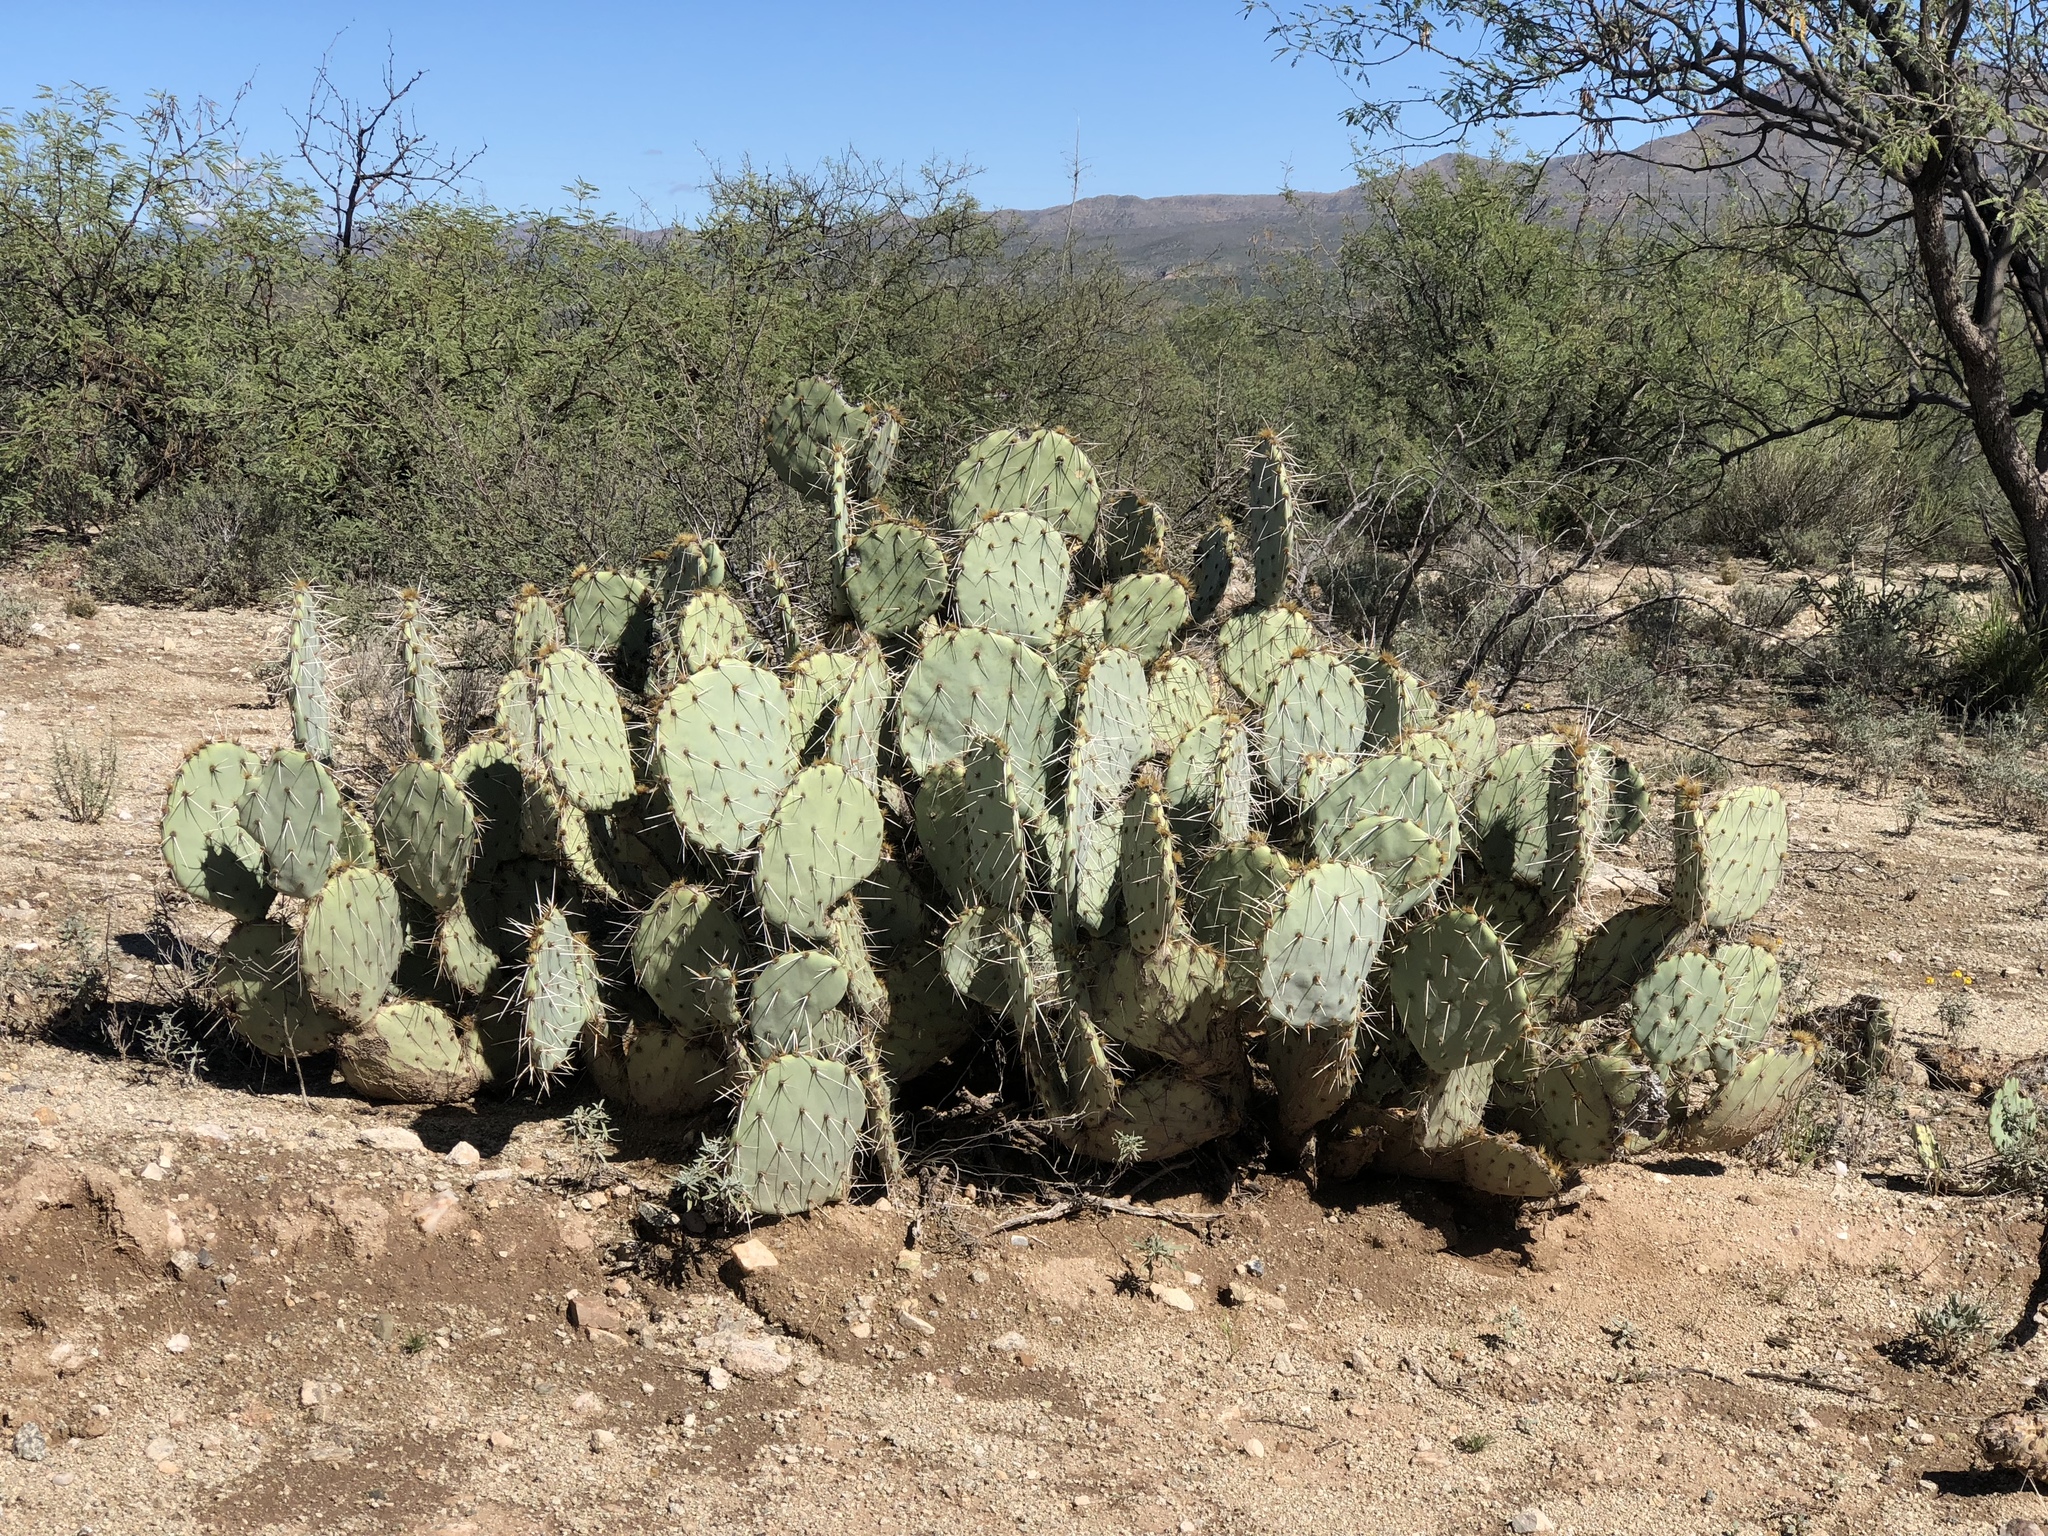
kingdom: Plantae
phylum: Tracheophyta
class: Magnoliopsida
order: Caryophyllales
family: Cactaceae
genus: Opuntia
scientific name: Opuntia engelmannii
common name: Cactus-apple
